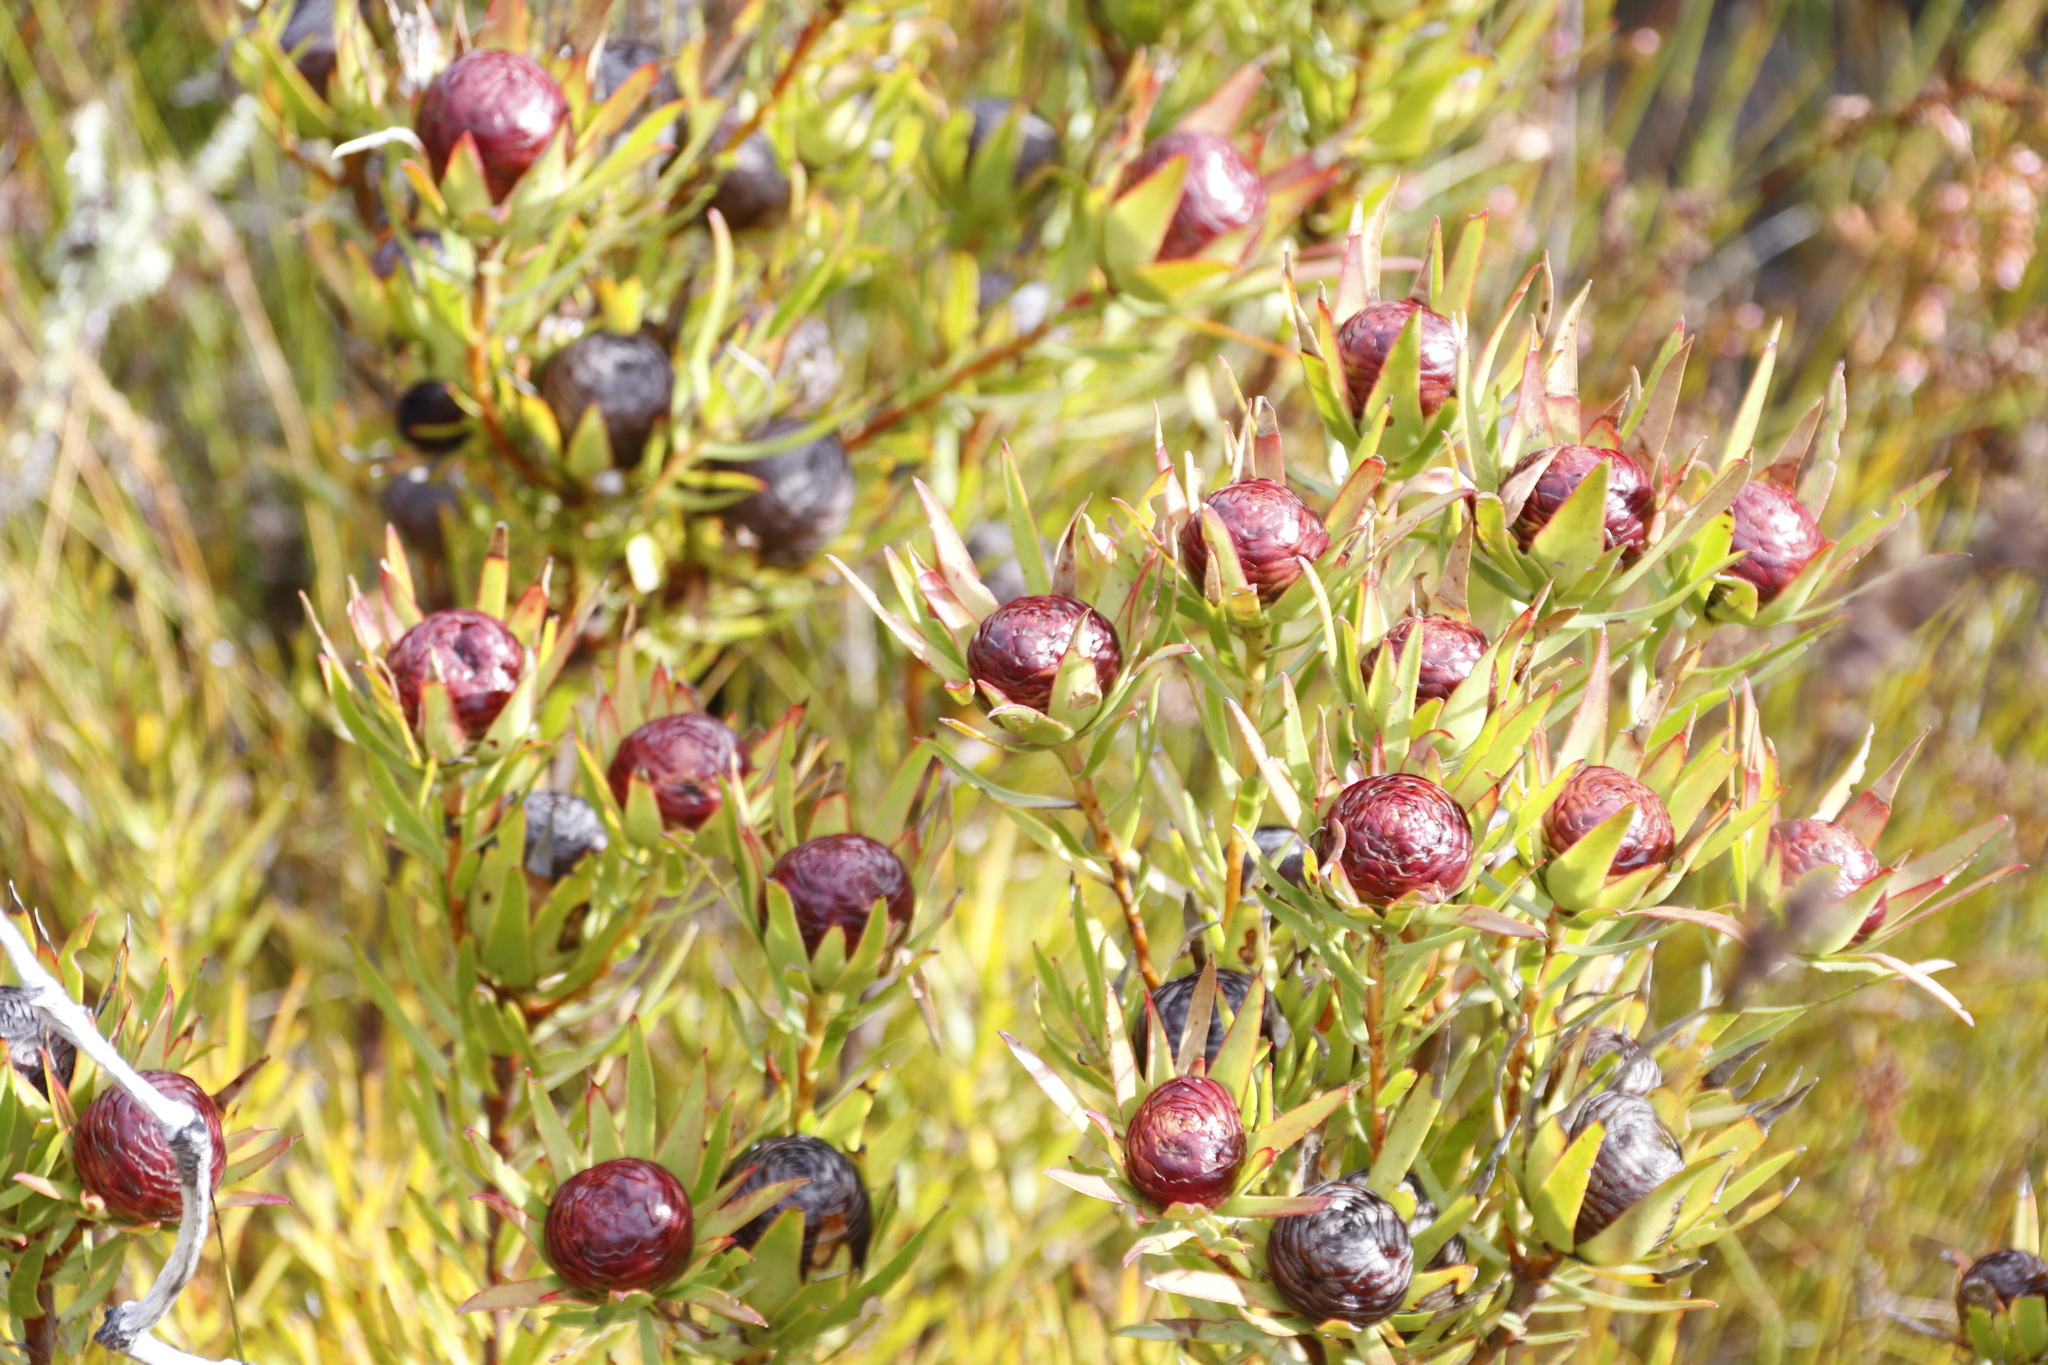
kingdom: Plantae
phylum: Tracheophyta
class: Magnoliopsida
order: Proteales
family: Proteaceae
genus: Leucadendron
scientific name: Leucadendron spissifolium
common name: Spear-leaf conebush
